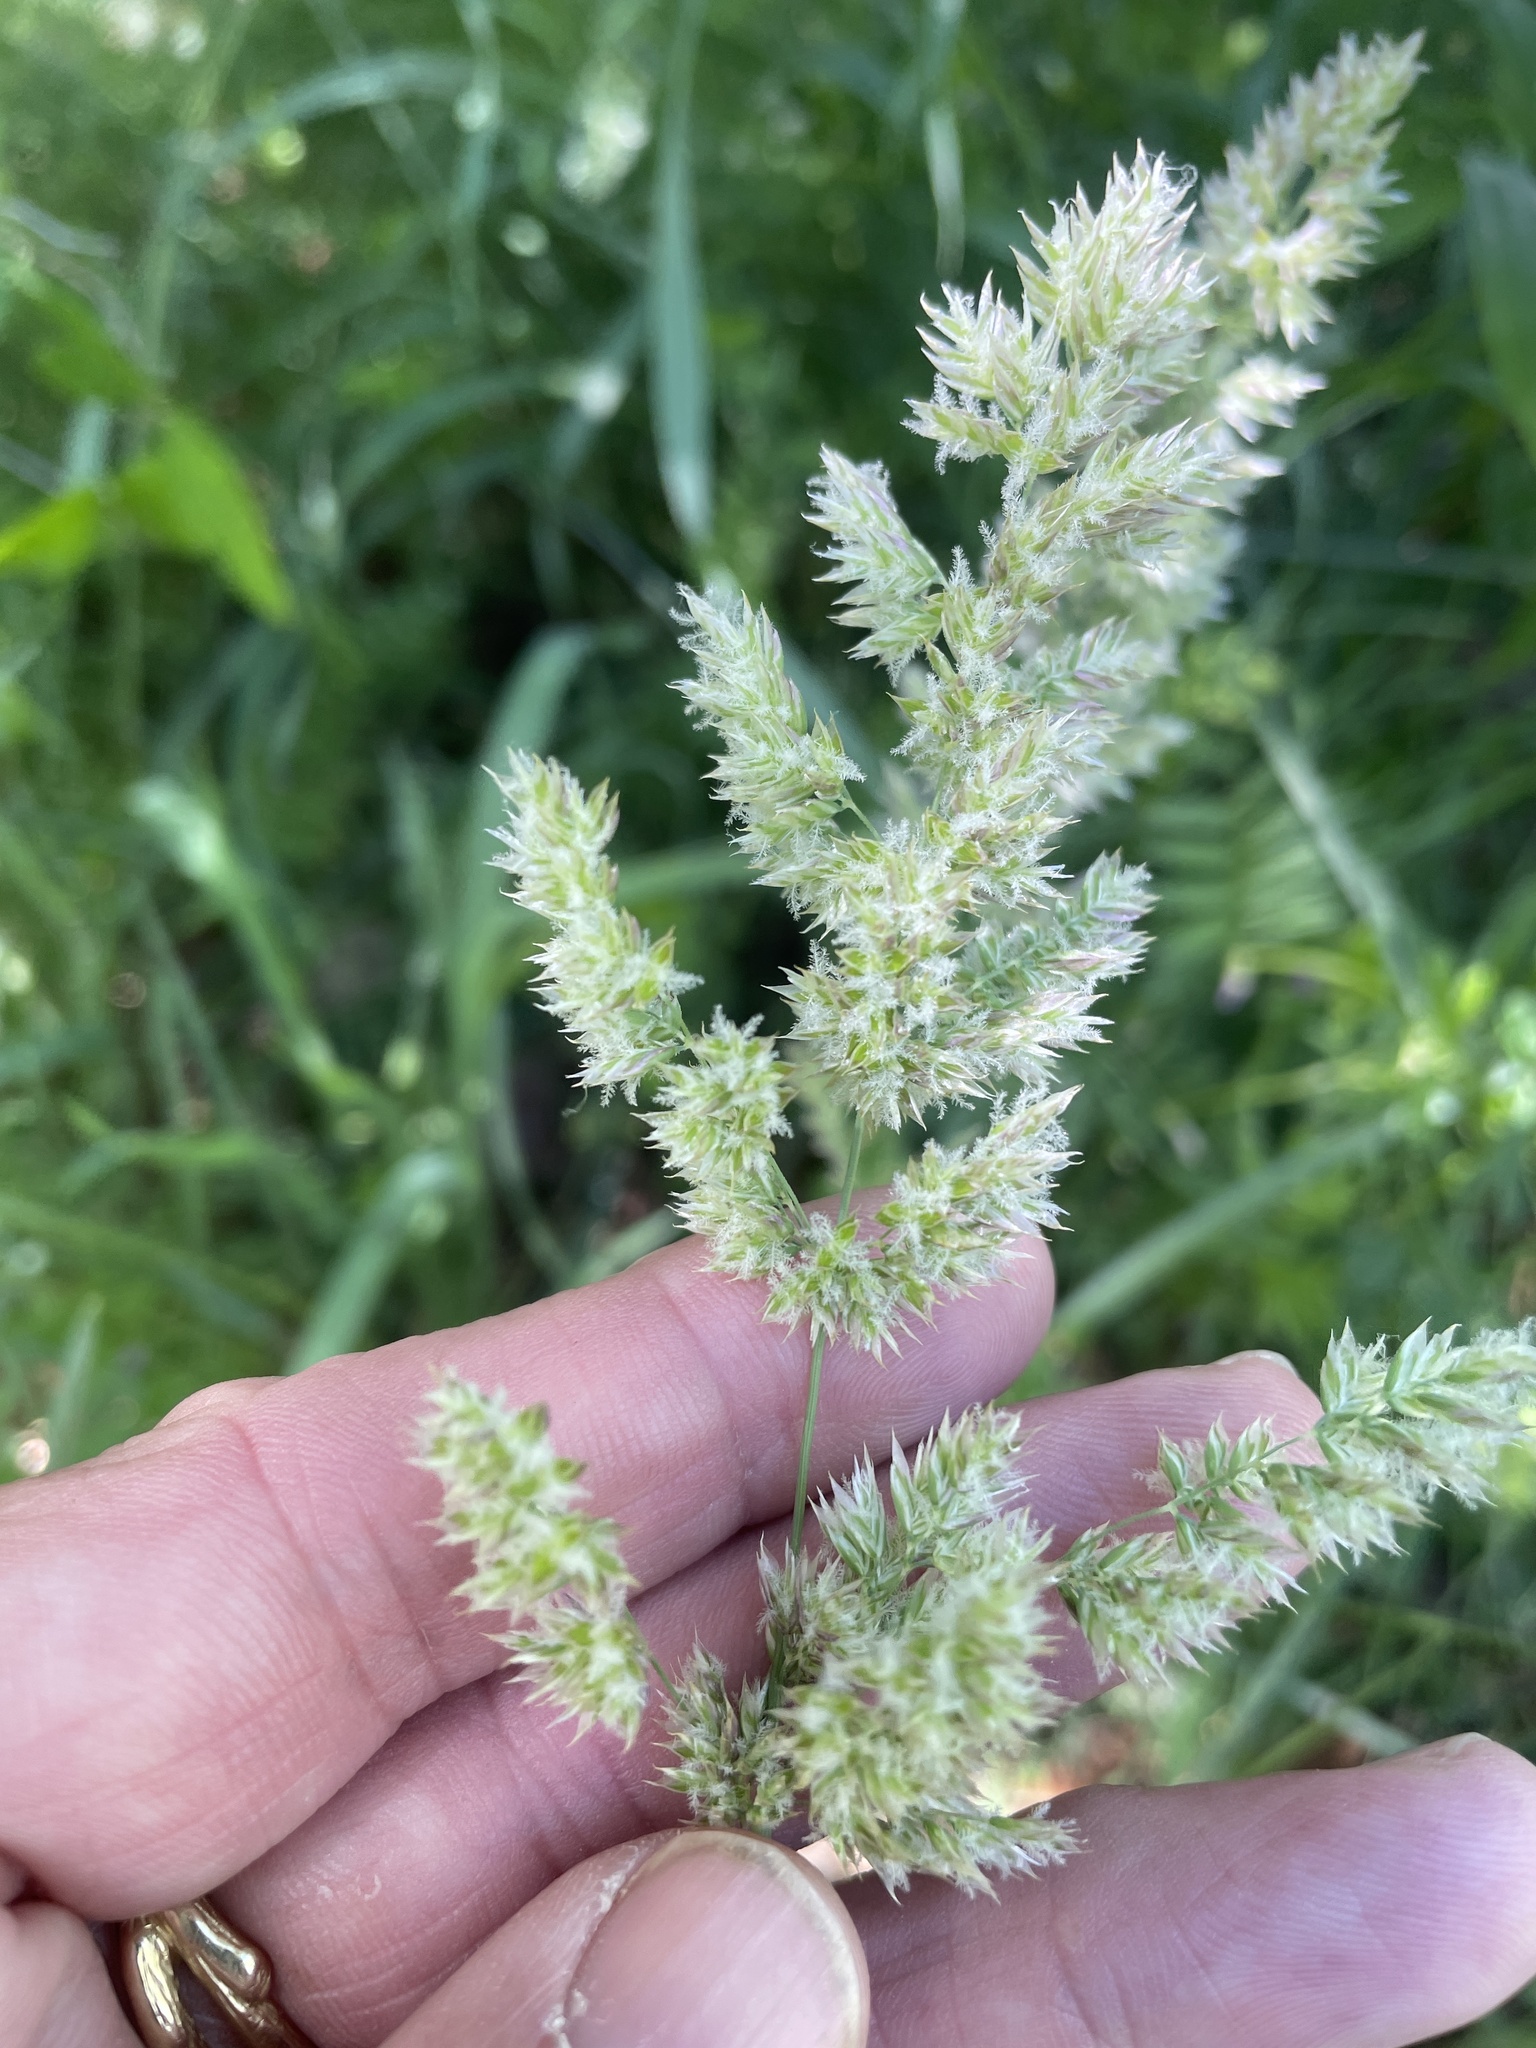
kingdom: Plantae
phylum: Tracheophyta
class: Liliopsida
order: Poales
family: Poaceae
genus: Poa
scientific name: Poa arachnifera
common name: Texas bluegrass
